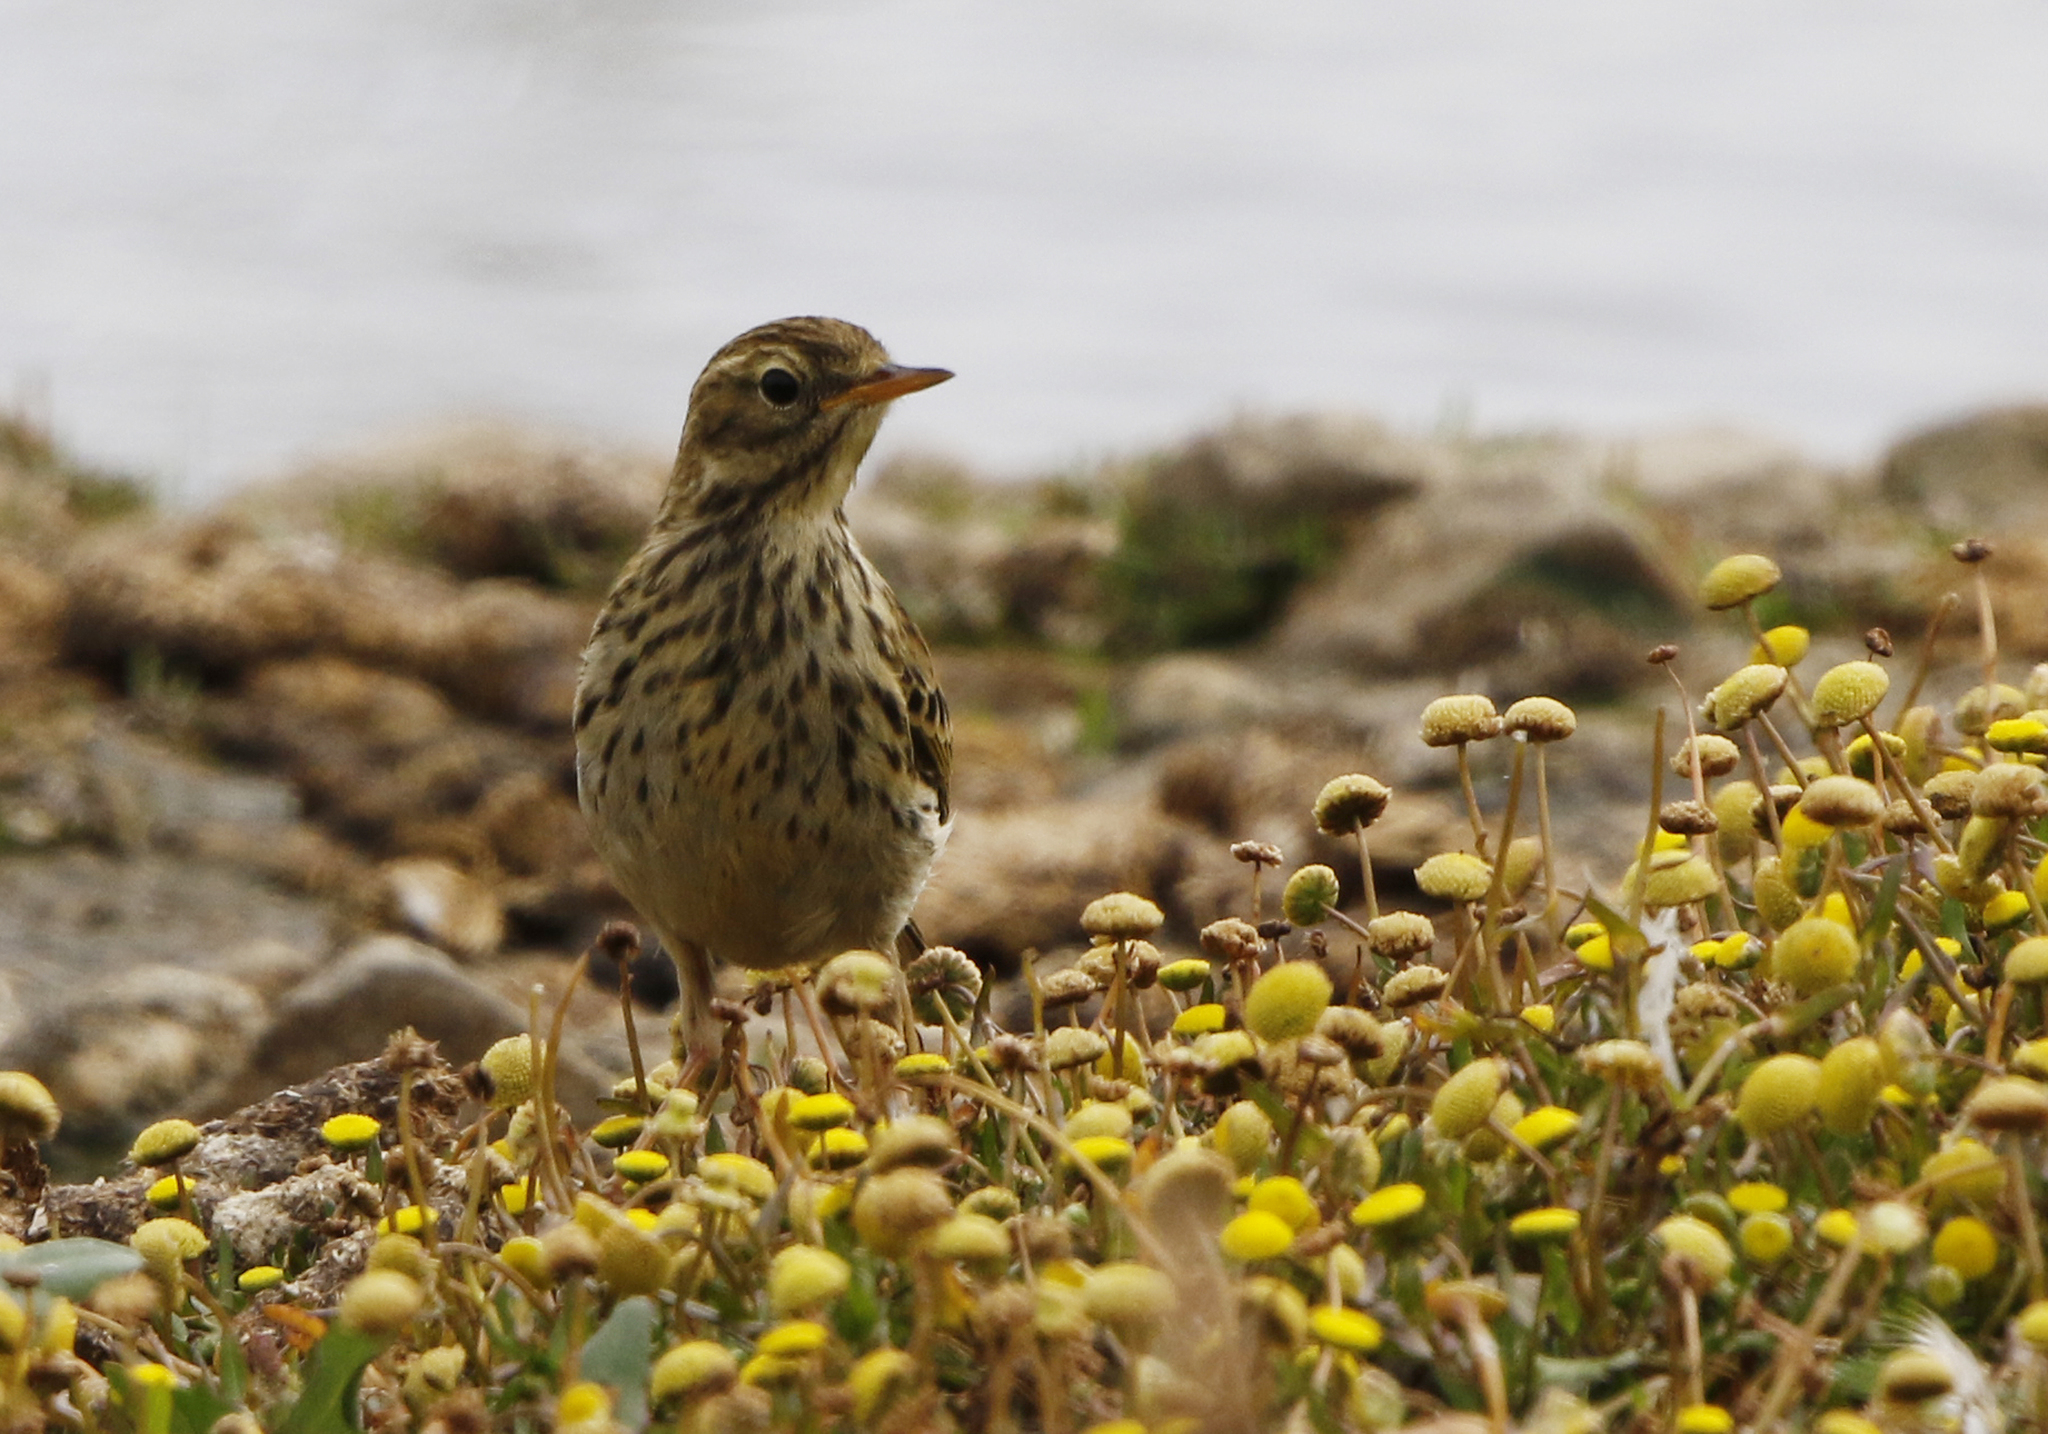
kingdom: Animalia
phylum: Chordata
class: Aves
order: Passeriformes
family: Motacillidae
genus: Anthus
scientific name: Anthus pratensis
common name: Meadow pipit
